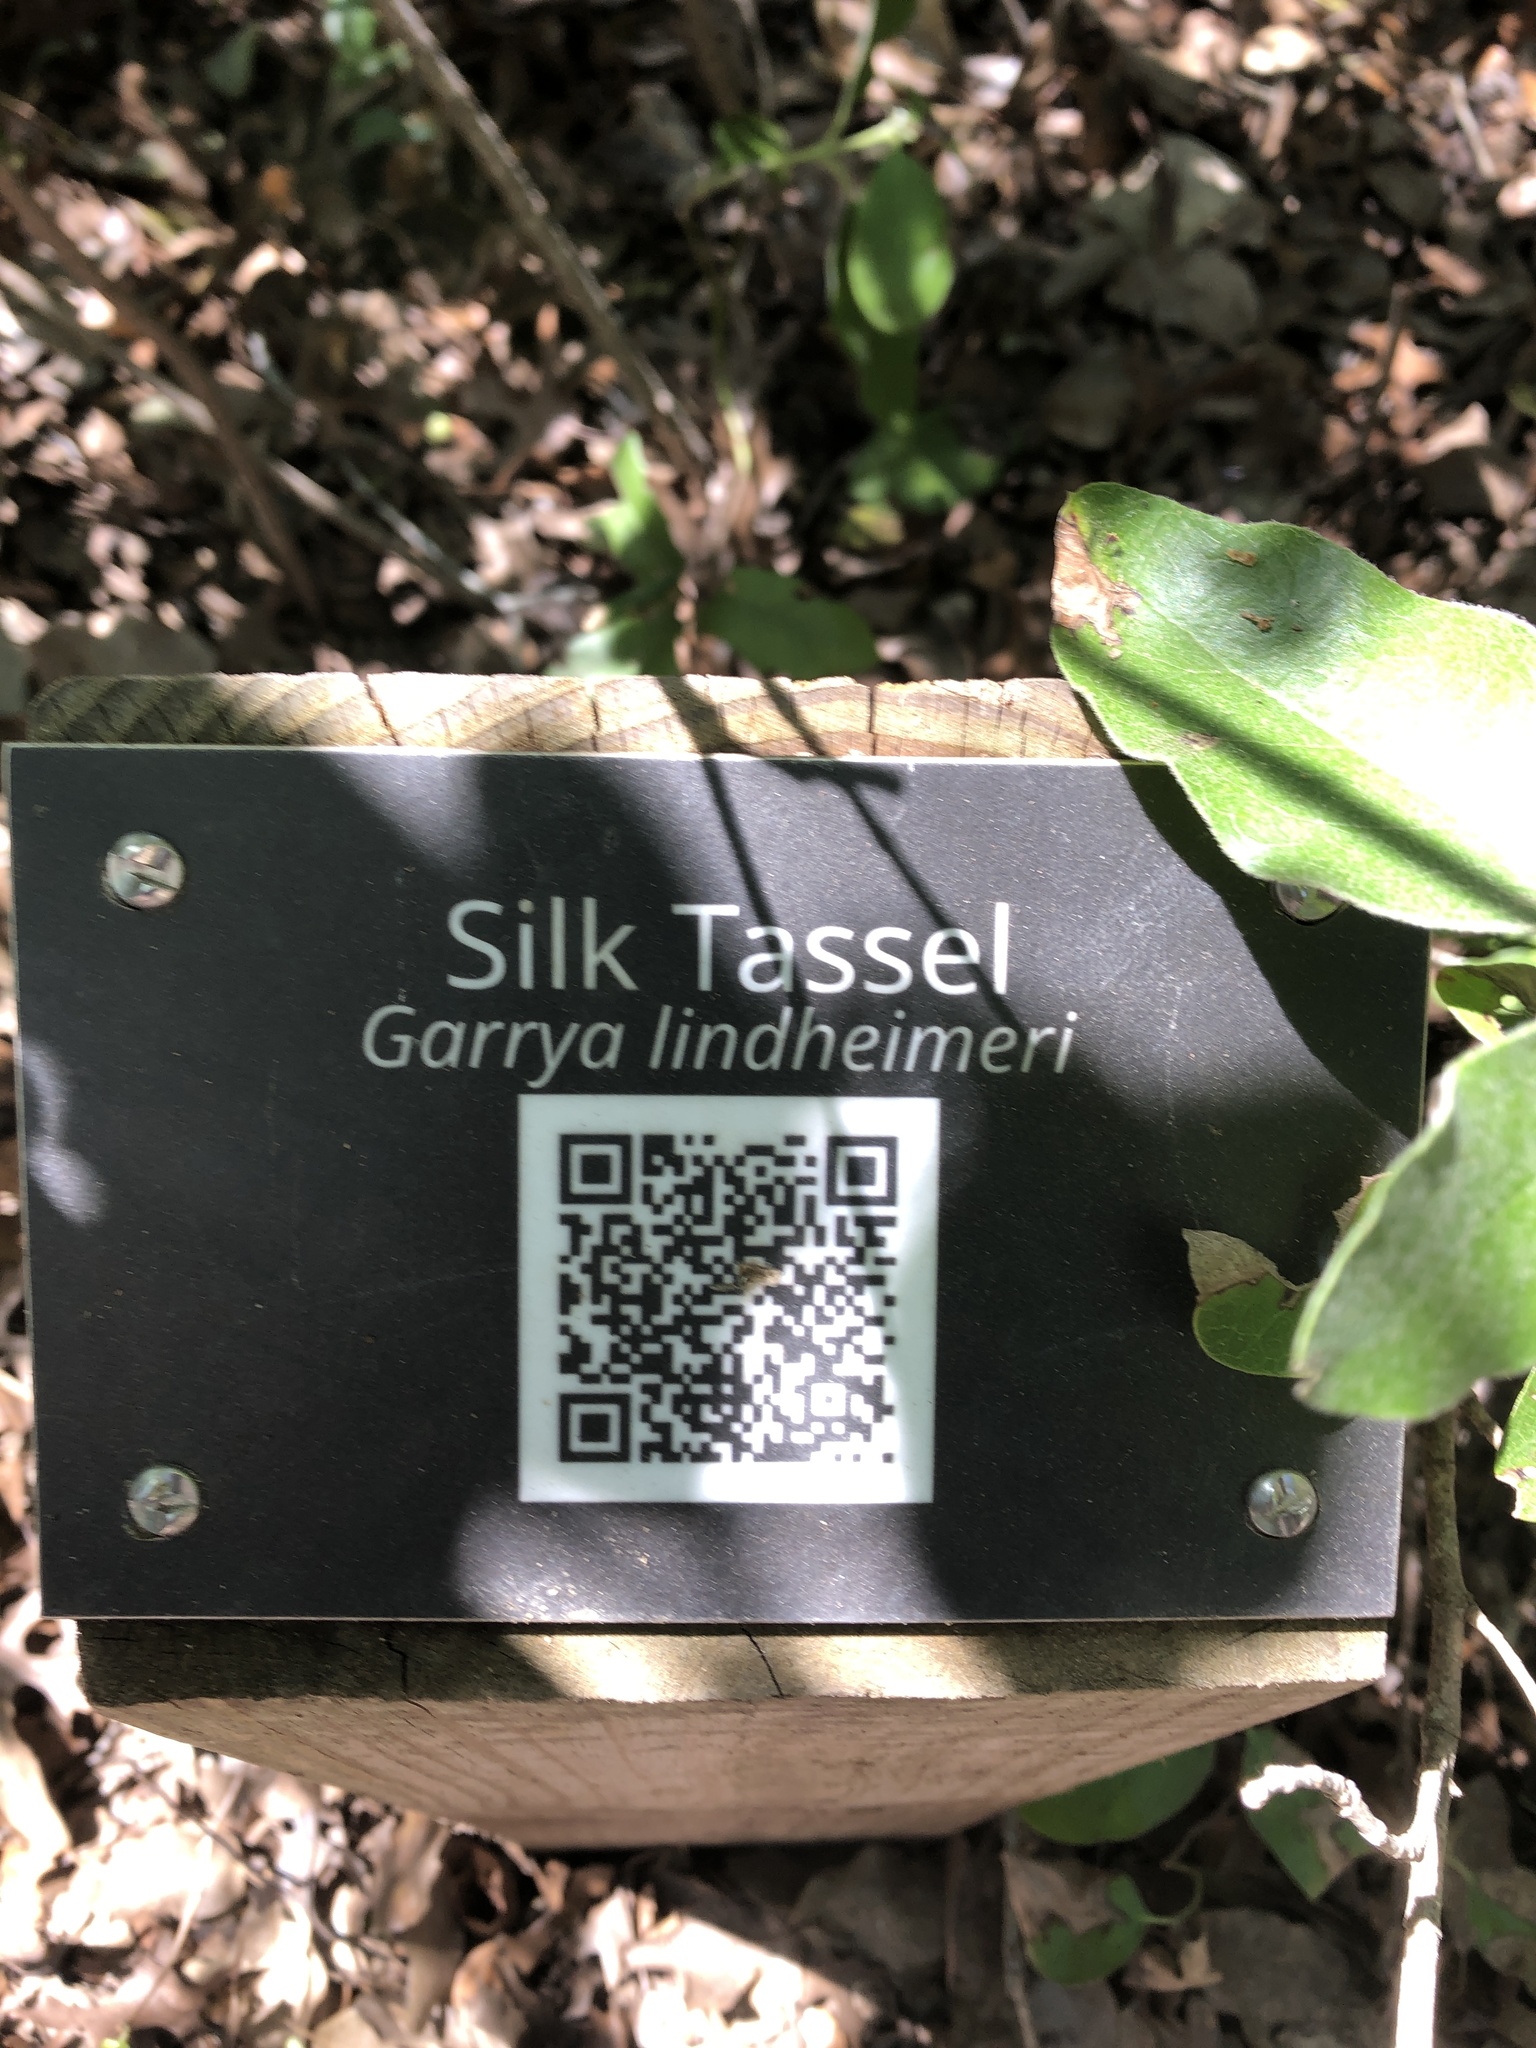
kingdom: Plantae
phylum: Tracheophyta
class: Magnoliopsida
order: Garryales
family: Garryaceae
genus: Garrya
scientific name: Garrya lindheimeri
